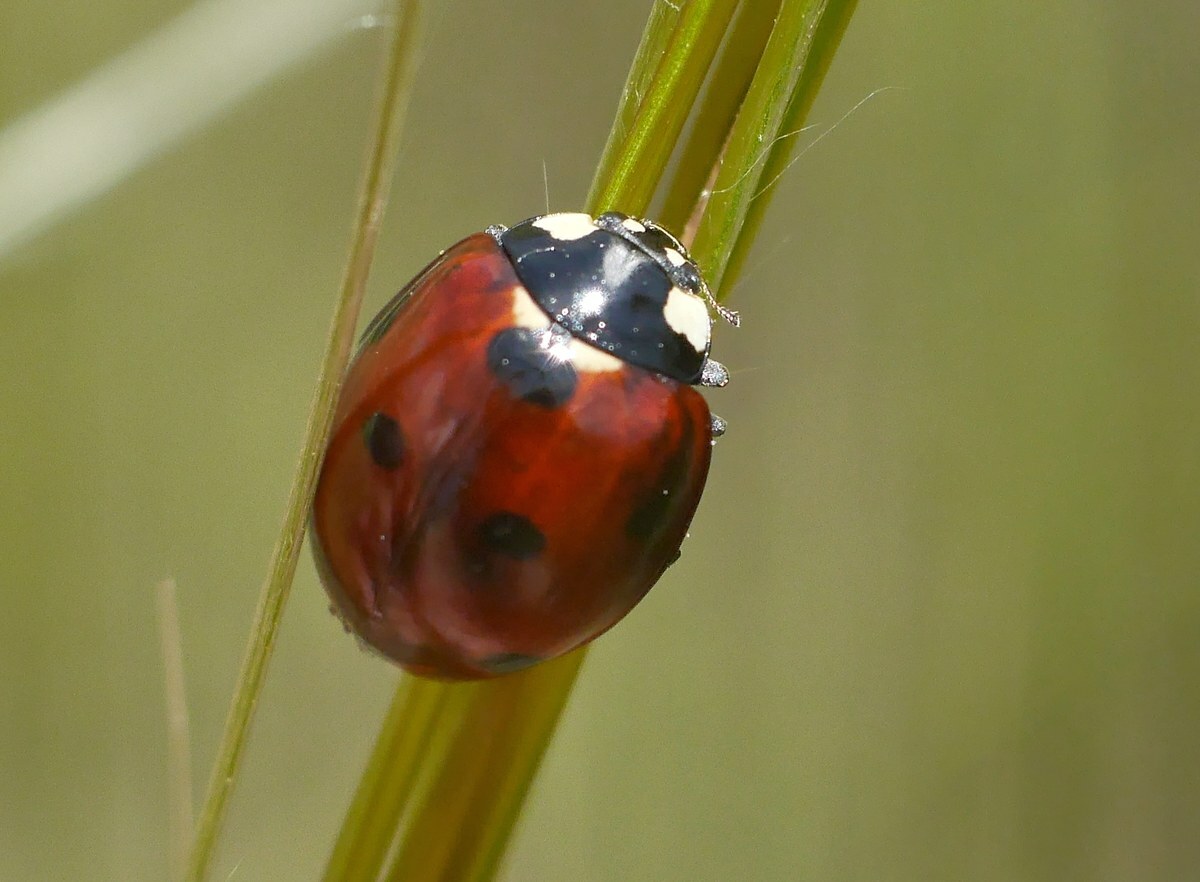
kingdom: Animalia
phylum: Arthropoda
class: Insecta
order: Coleoptera
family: Coccinellidae
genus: Coccinella
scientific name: Coccinella septempunctata
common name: Sevenspotted lady beetle
